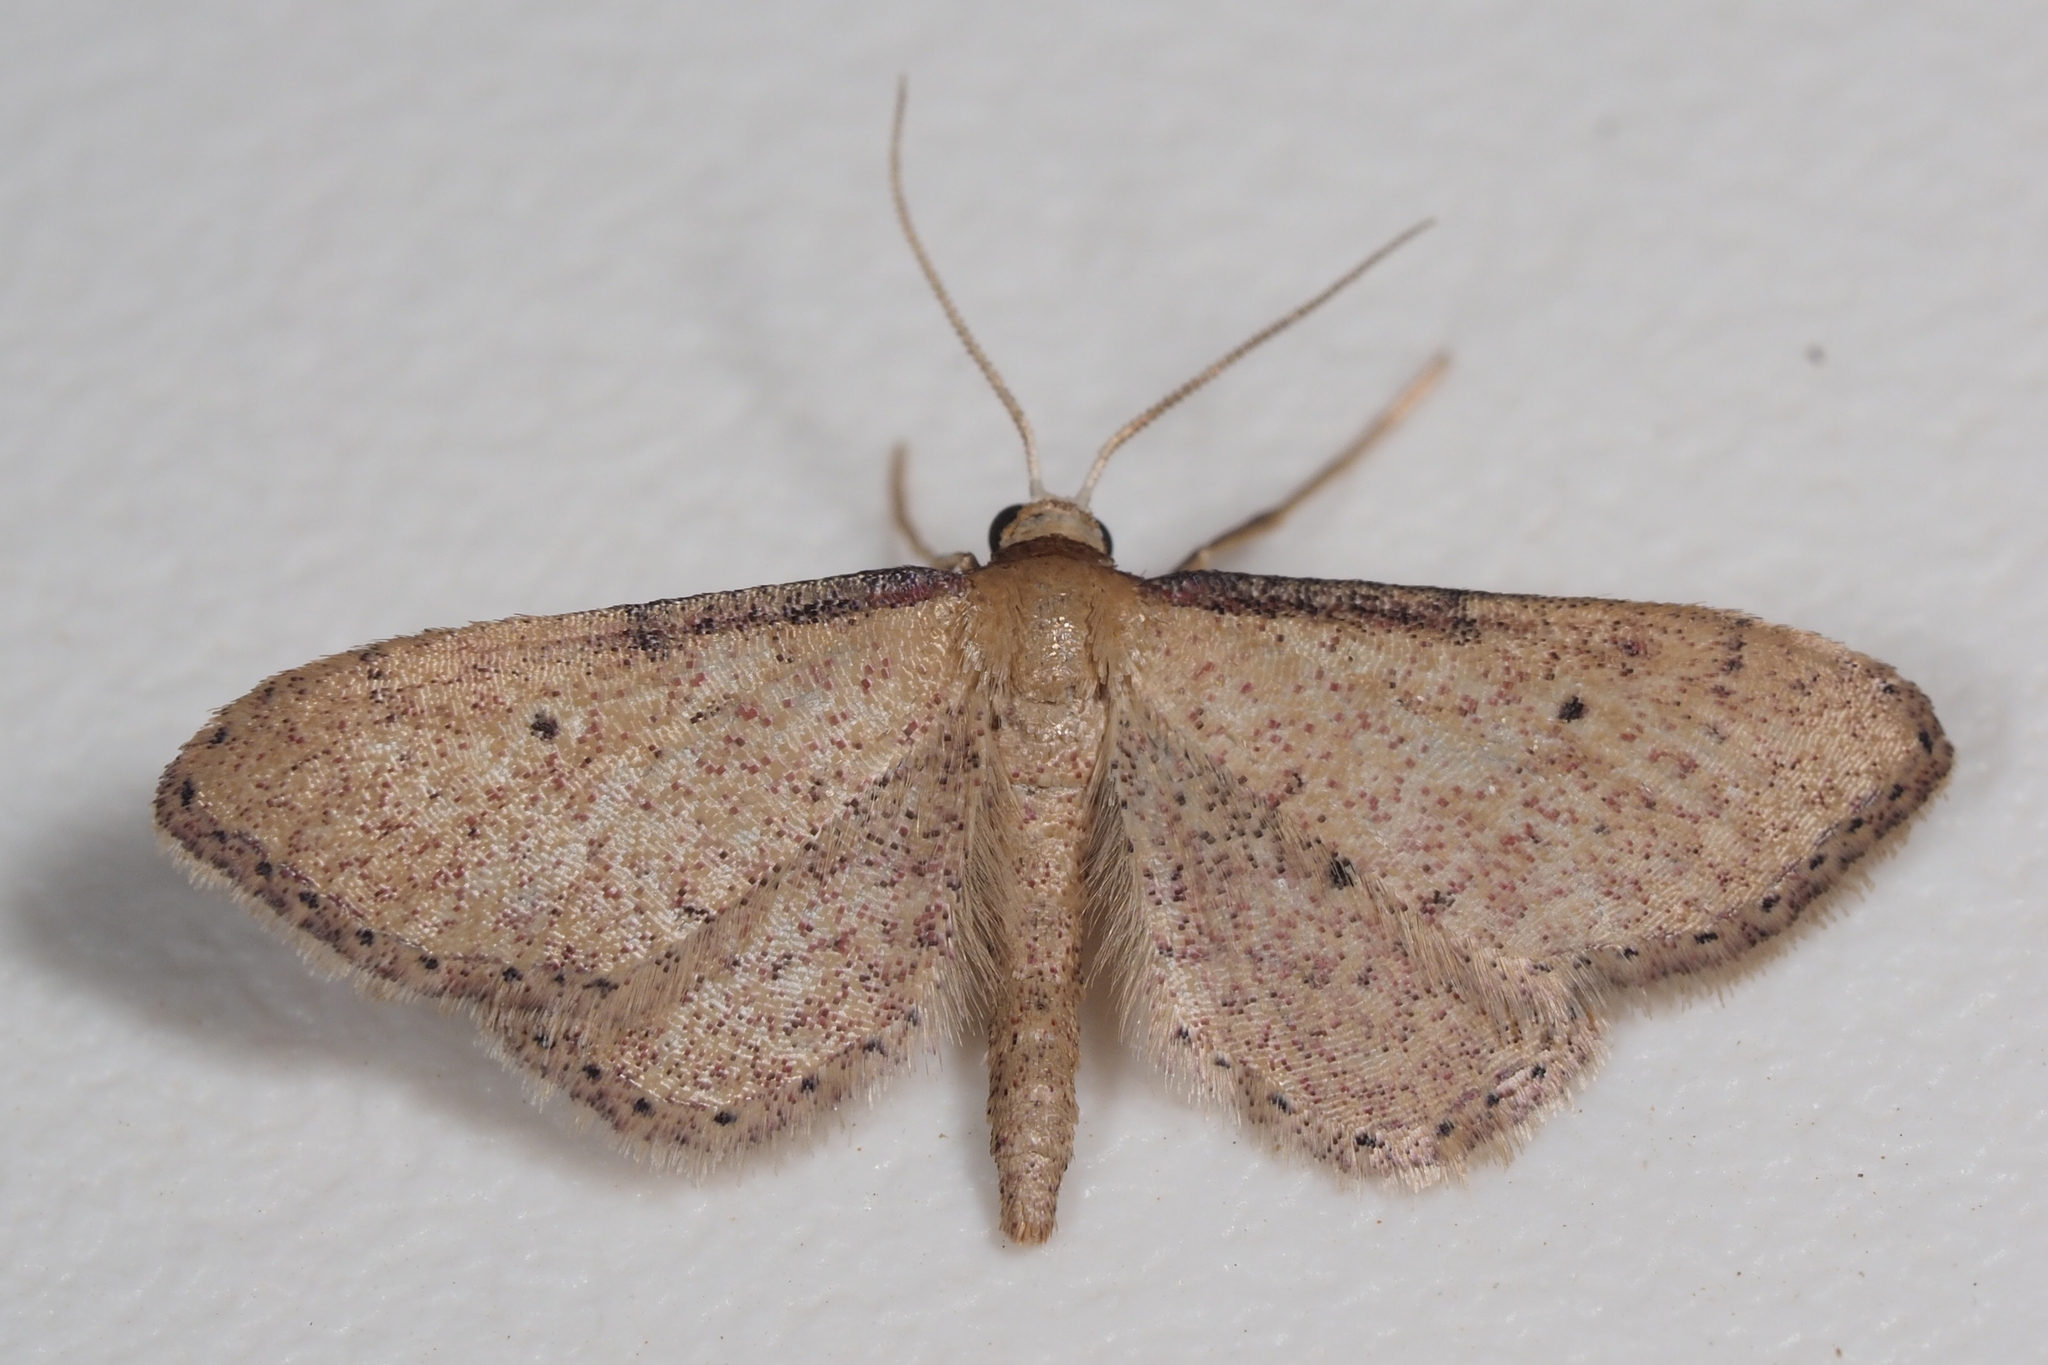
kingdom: Animalia
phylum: Arthropoda
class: Insecta
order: Lepidoptera
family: Geometridae
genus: Idaea
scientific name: Idaea infirmaria
